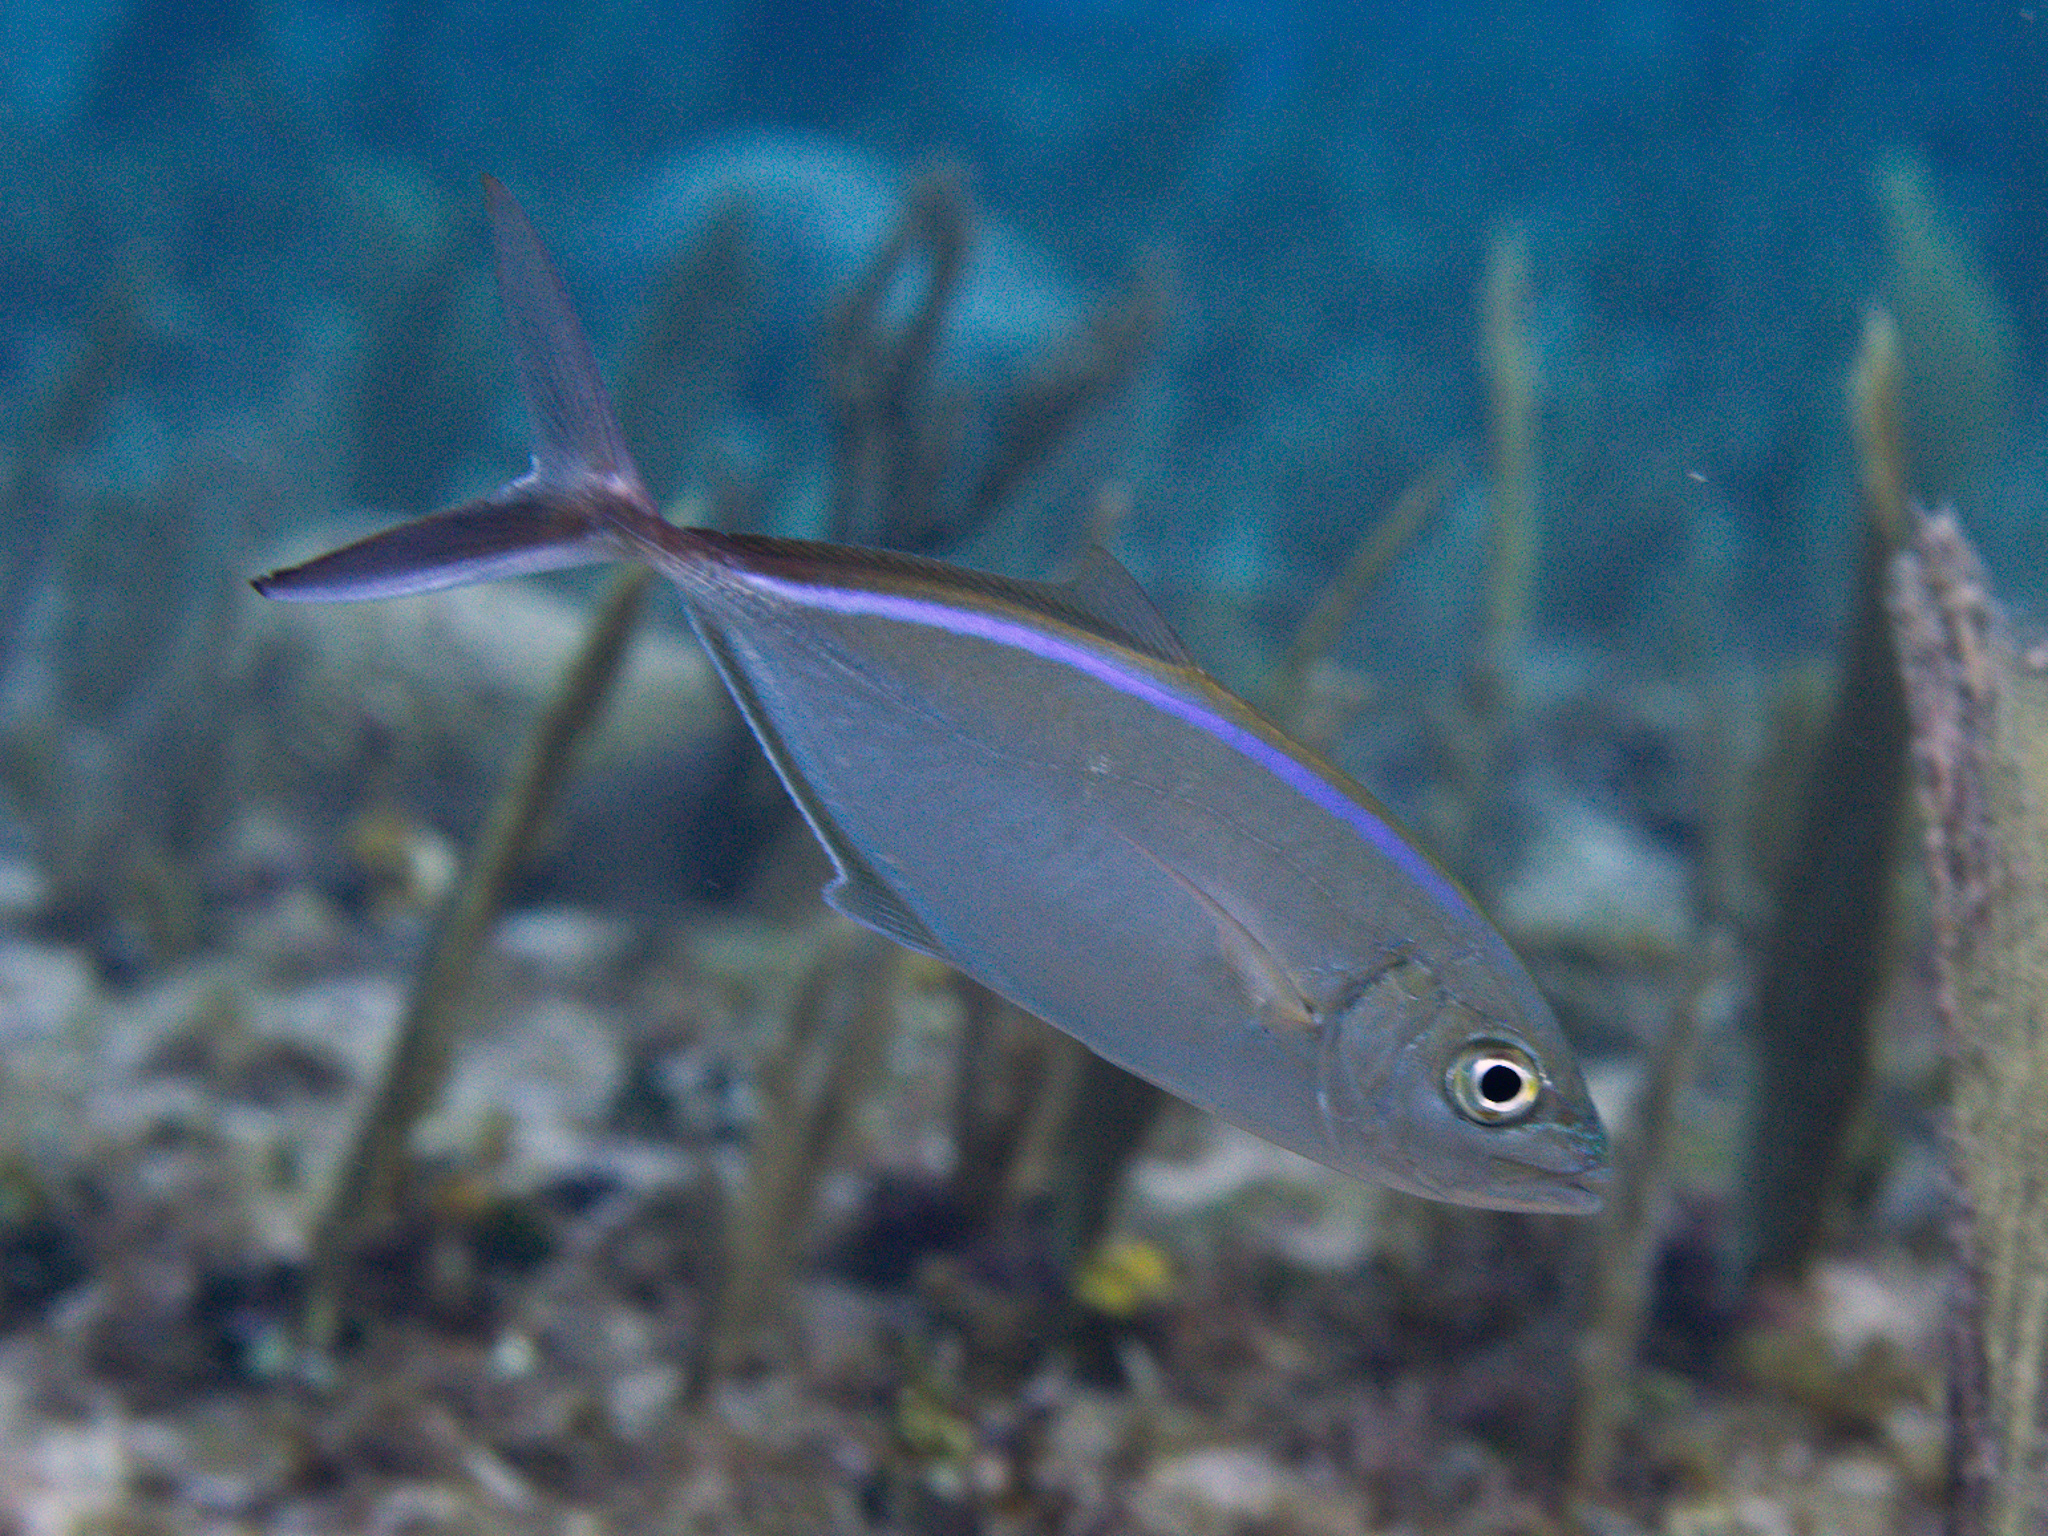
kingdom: Animalia
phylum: Chordata
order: Perciformes
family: Carangidae
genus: Caranx
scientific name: Caranx ruber
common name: Bar jack
